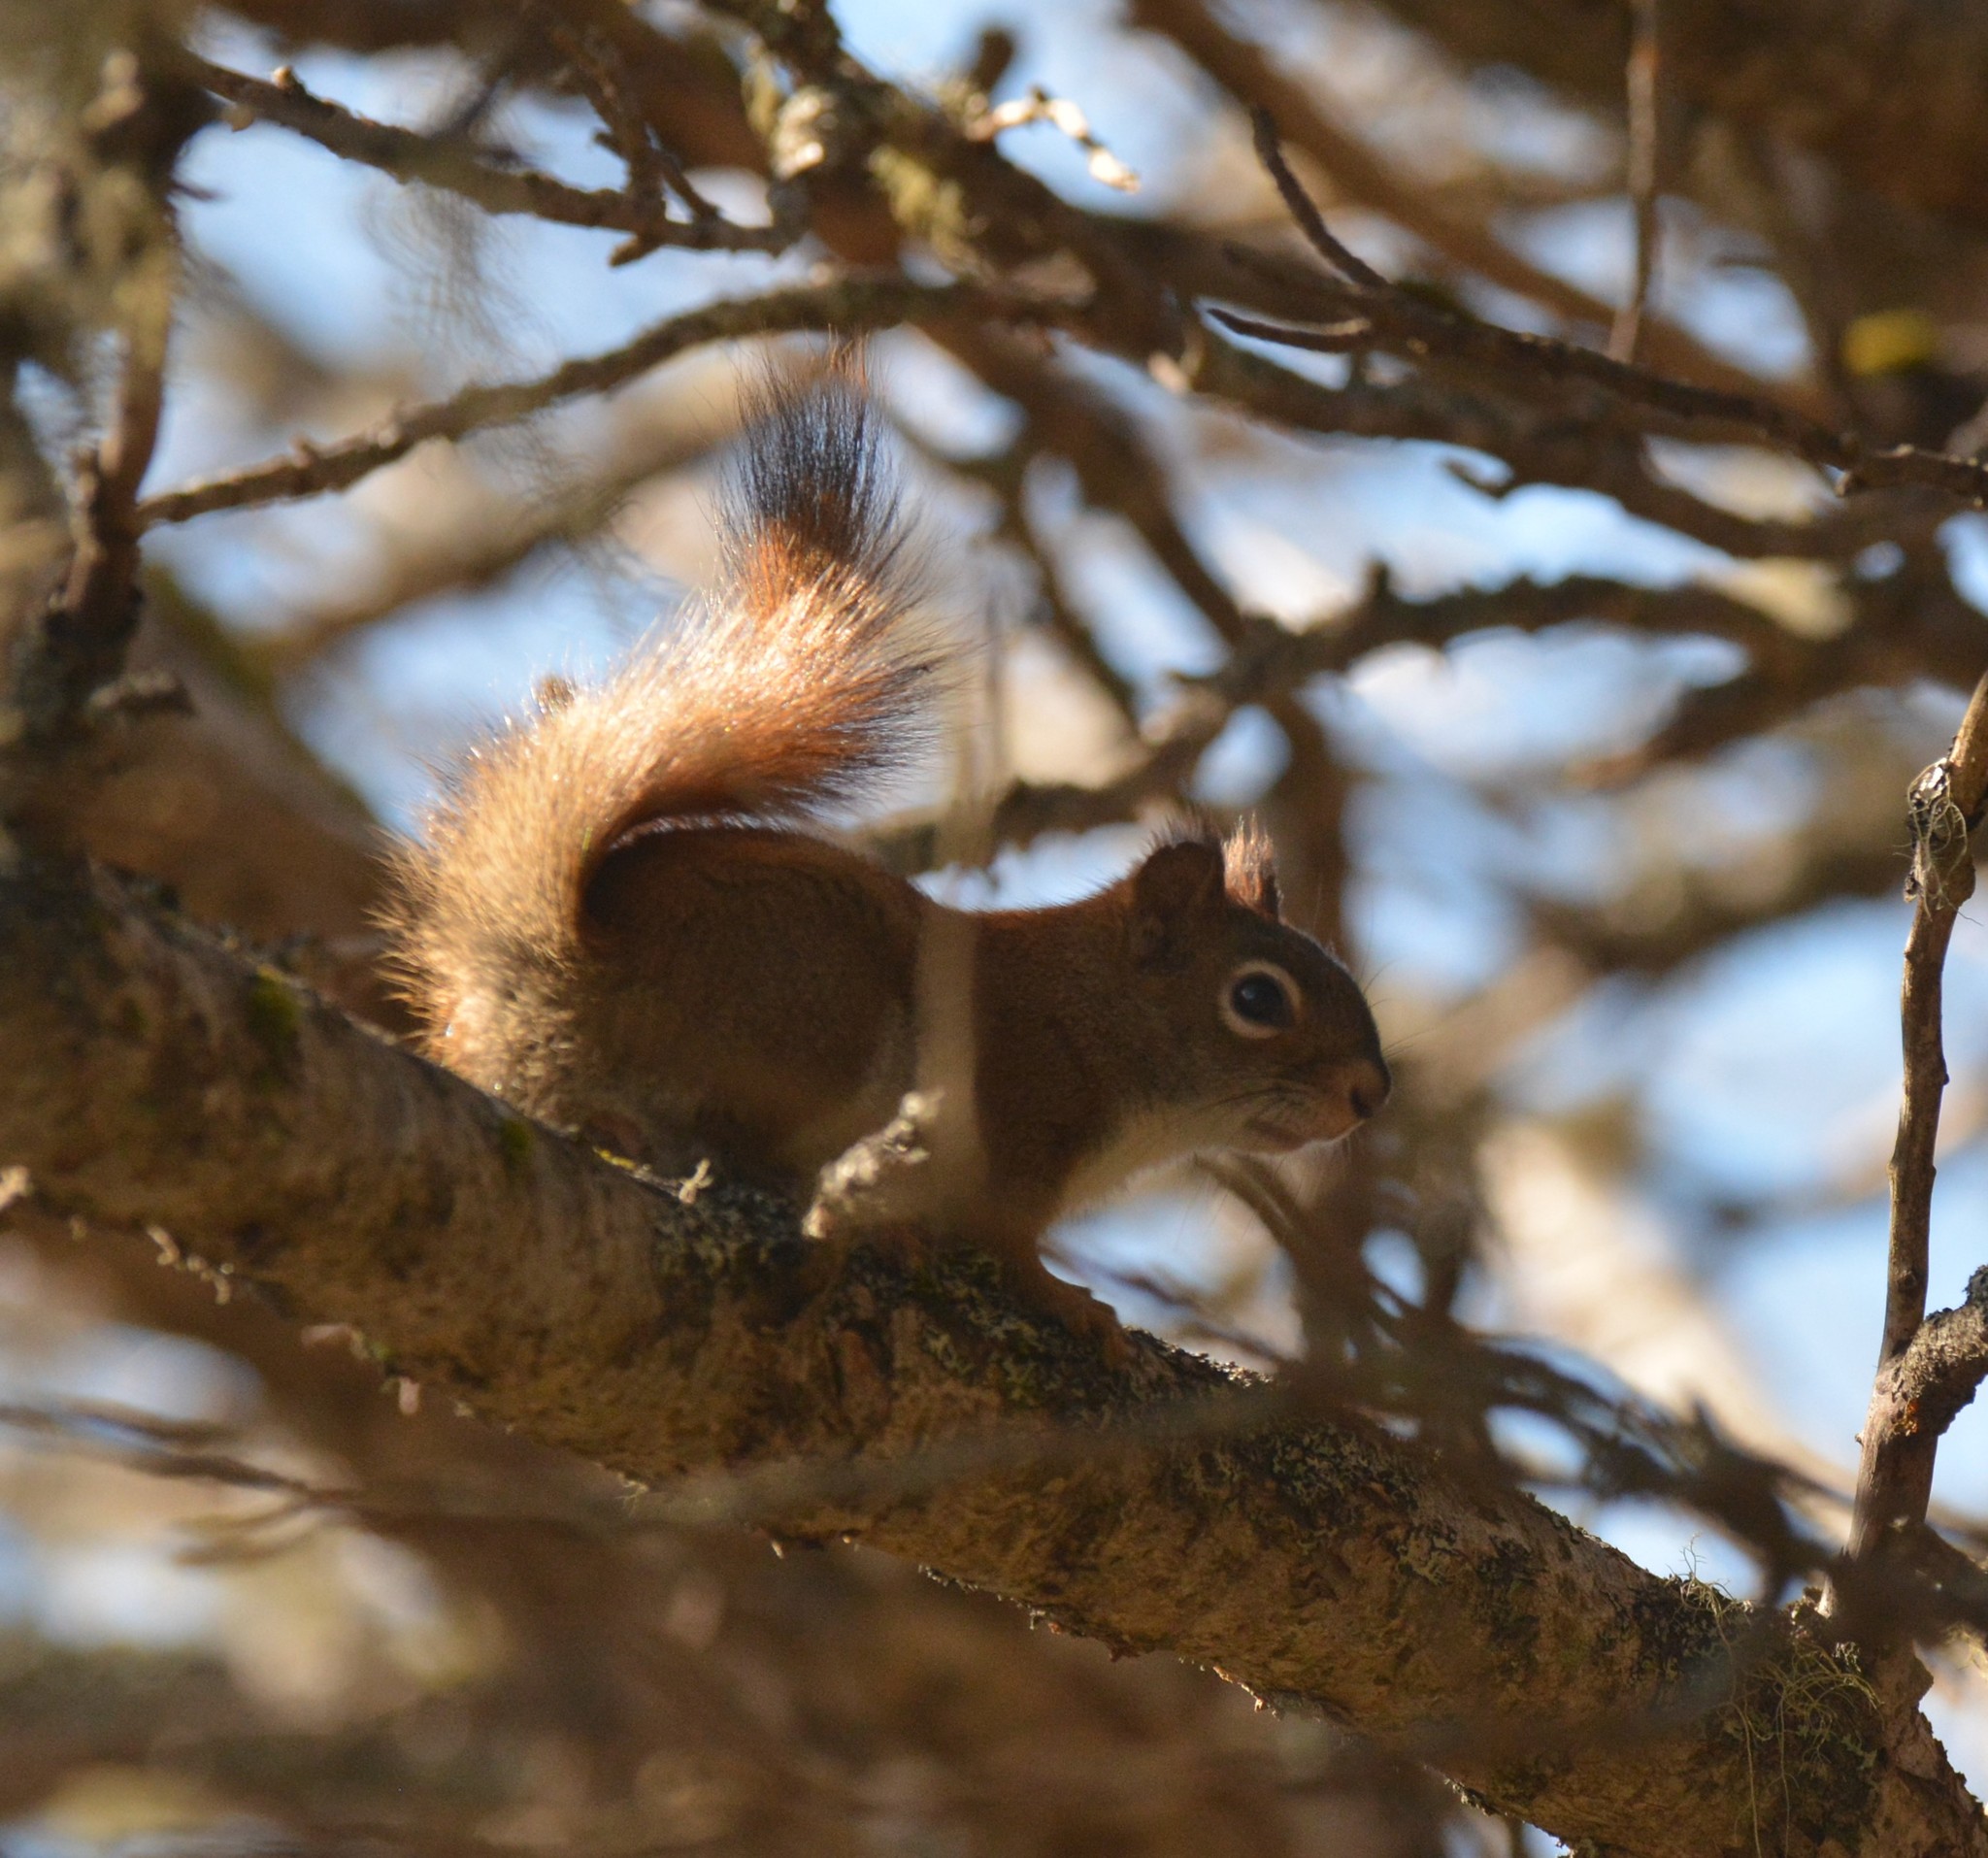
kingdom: Animalia
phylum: Chordata
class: Mammalia
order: Rodentia
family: Sciuridae
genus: Tamiasciurus
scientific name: Tamiasciurus hudsonicus
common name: Red squirrel
